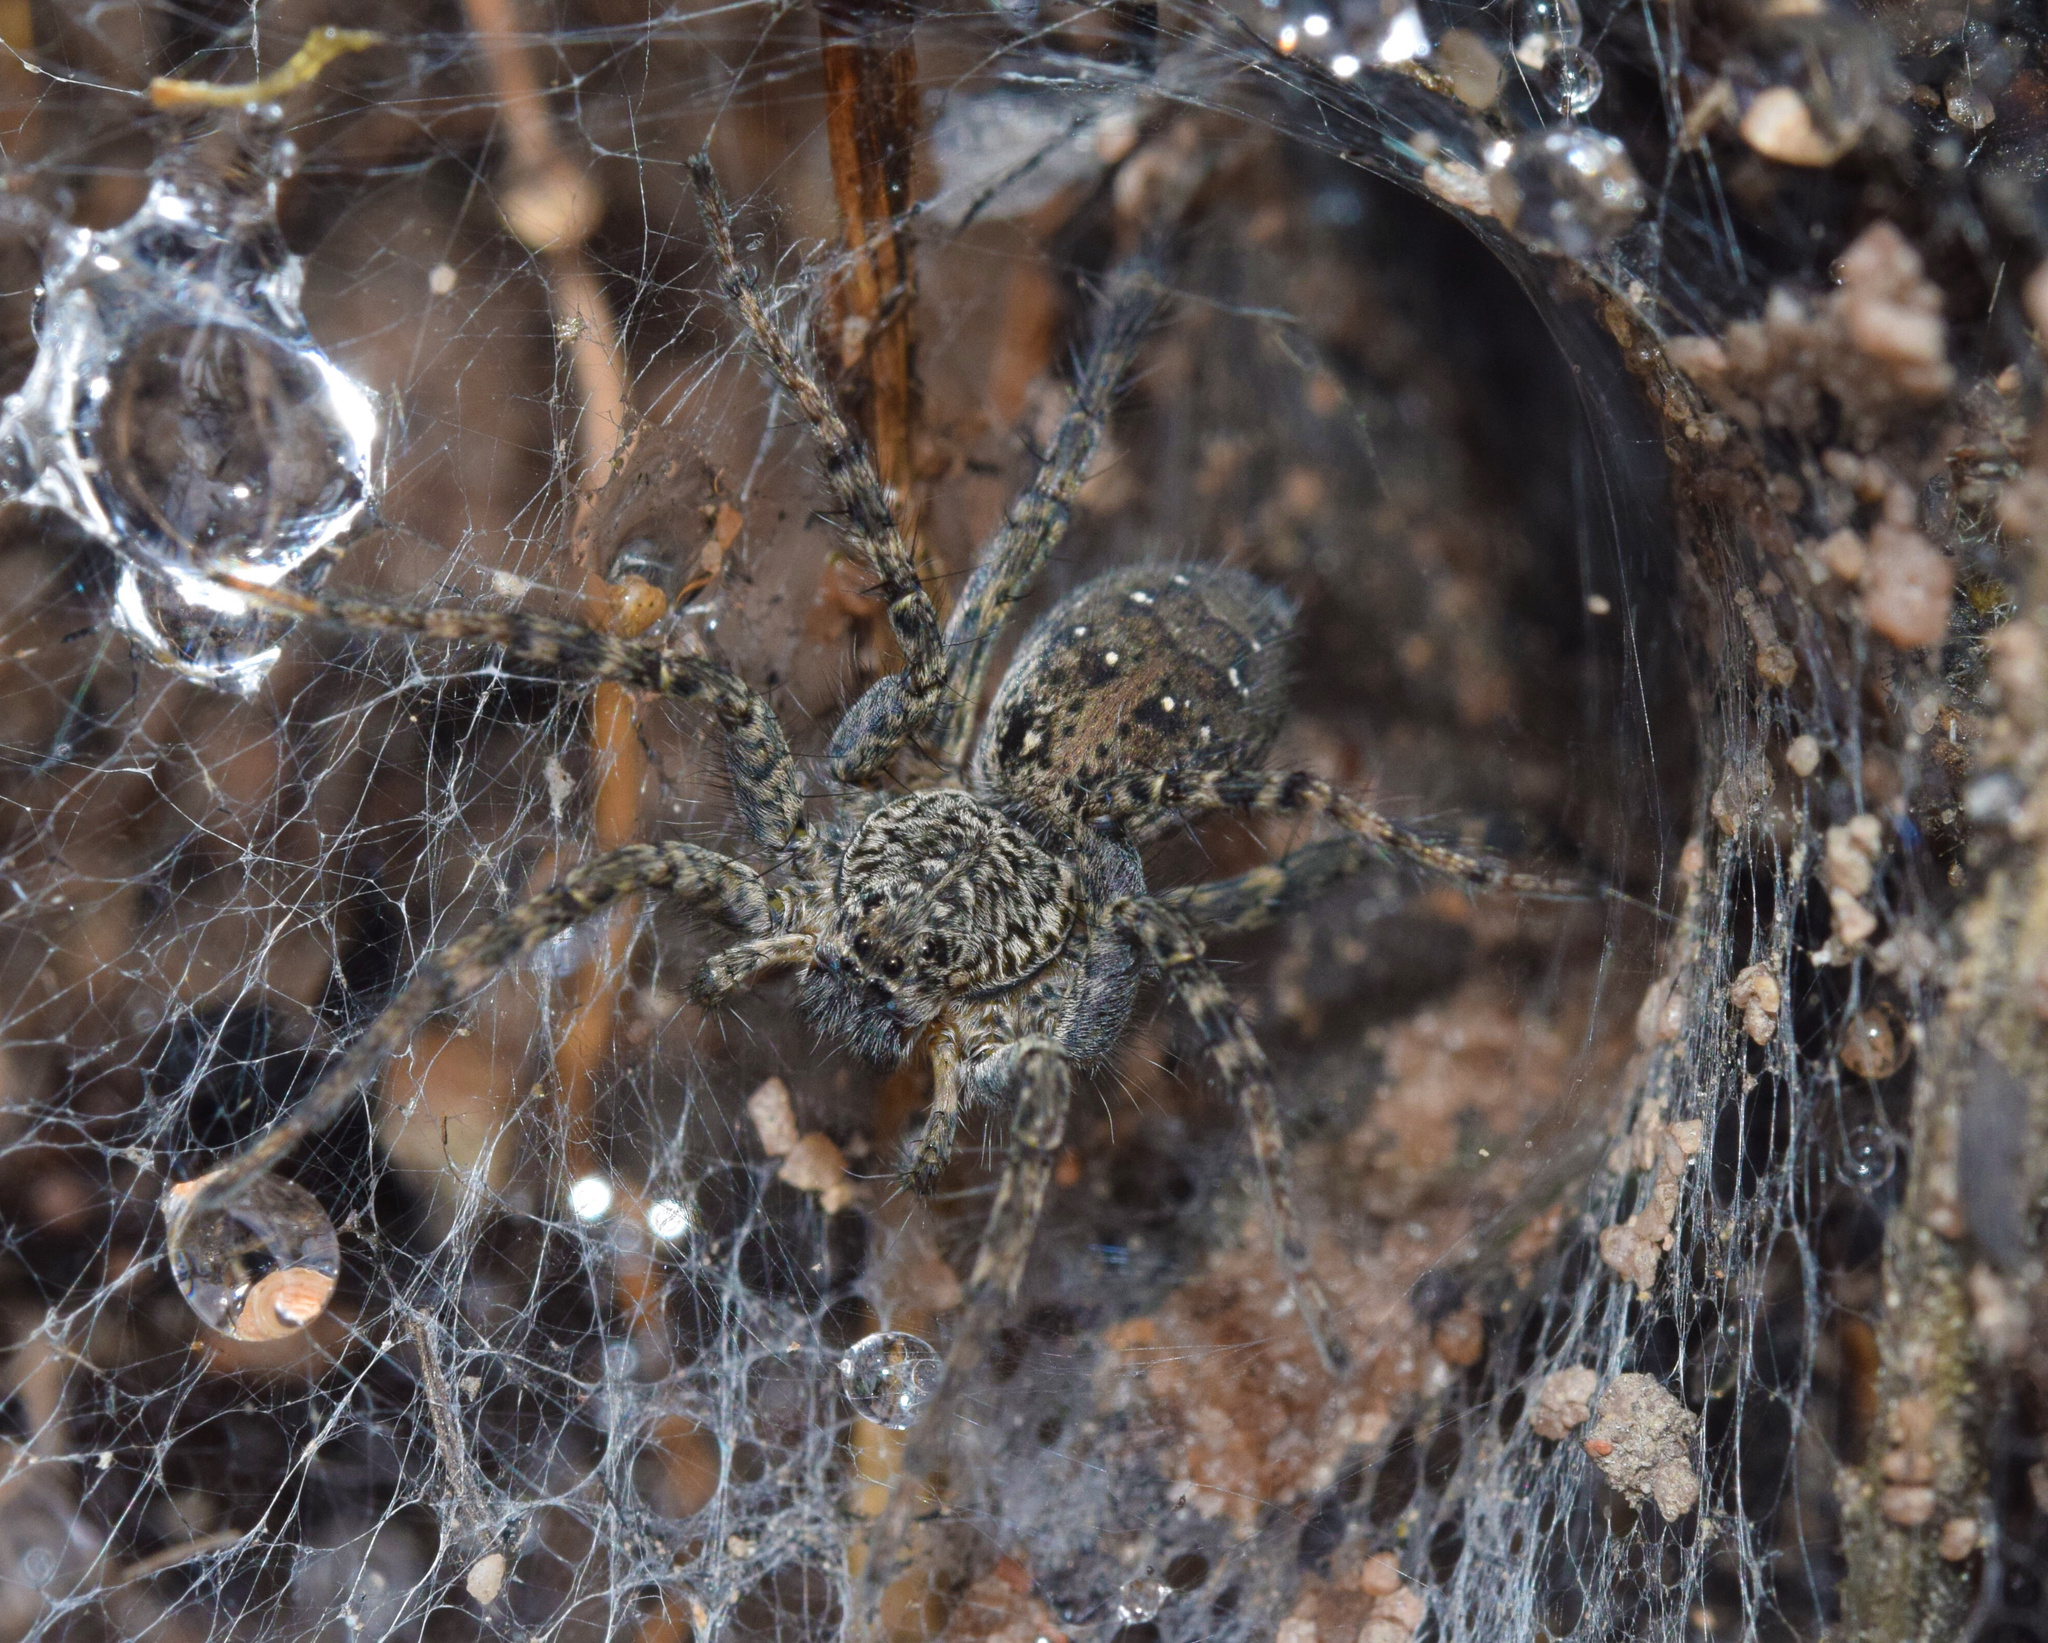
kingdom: Animalia
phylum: Arthropoda
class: Arachnida
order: Araneae
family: Lycosidae
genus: Hippasa
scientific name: Hippasa australis
